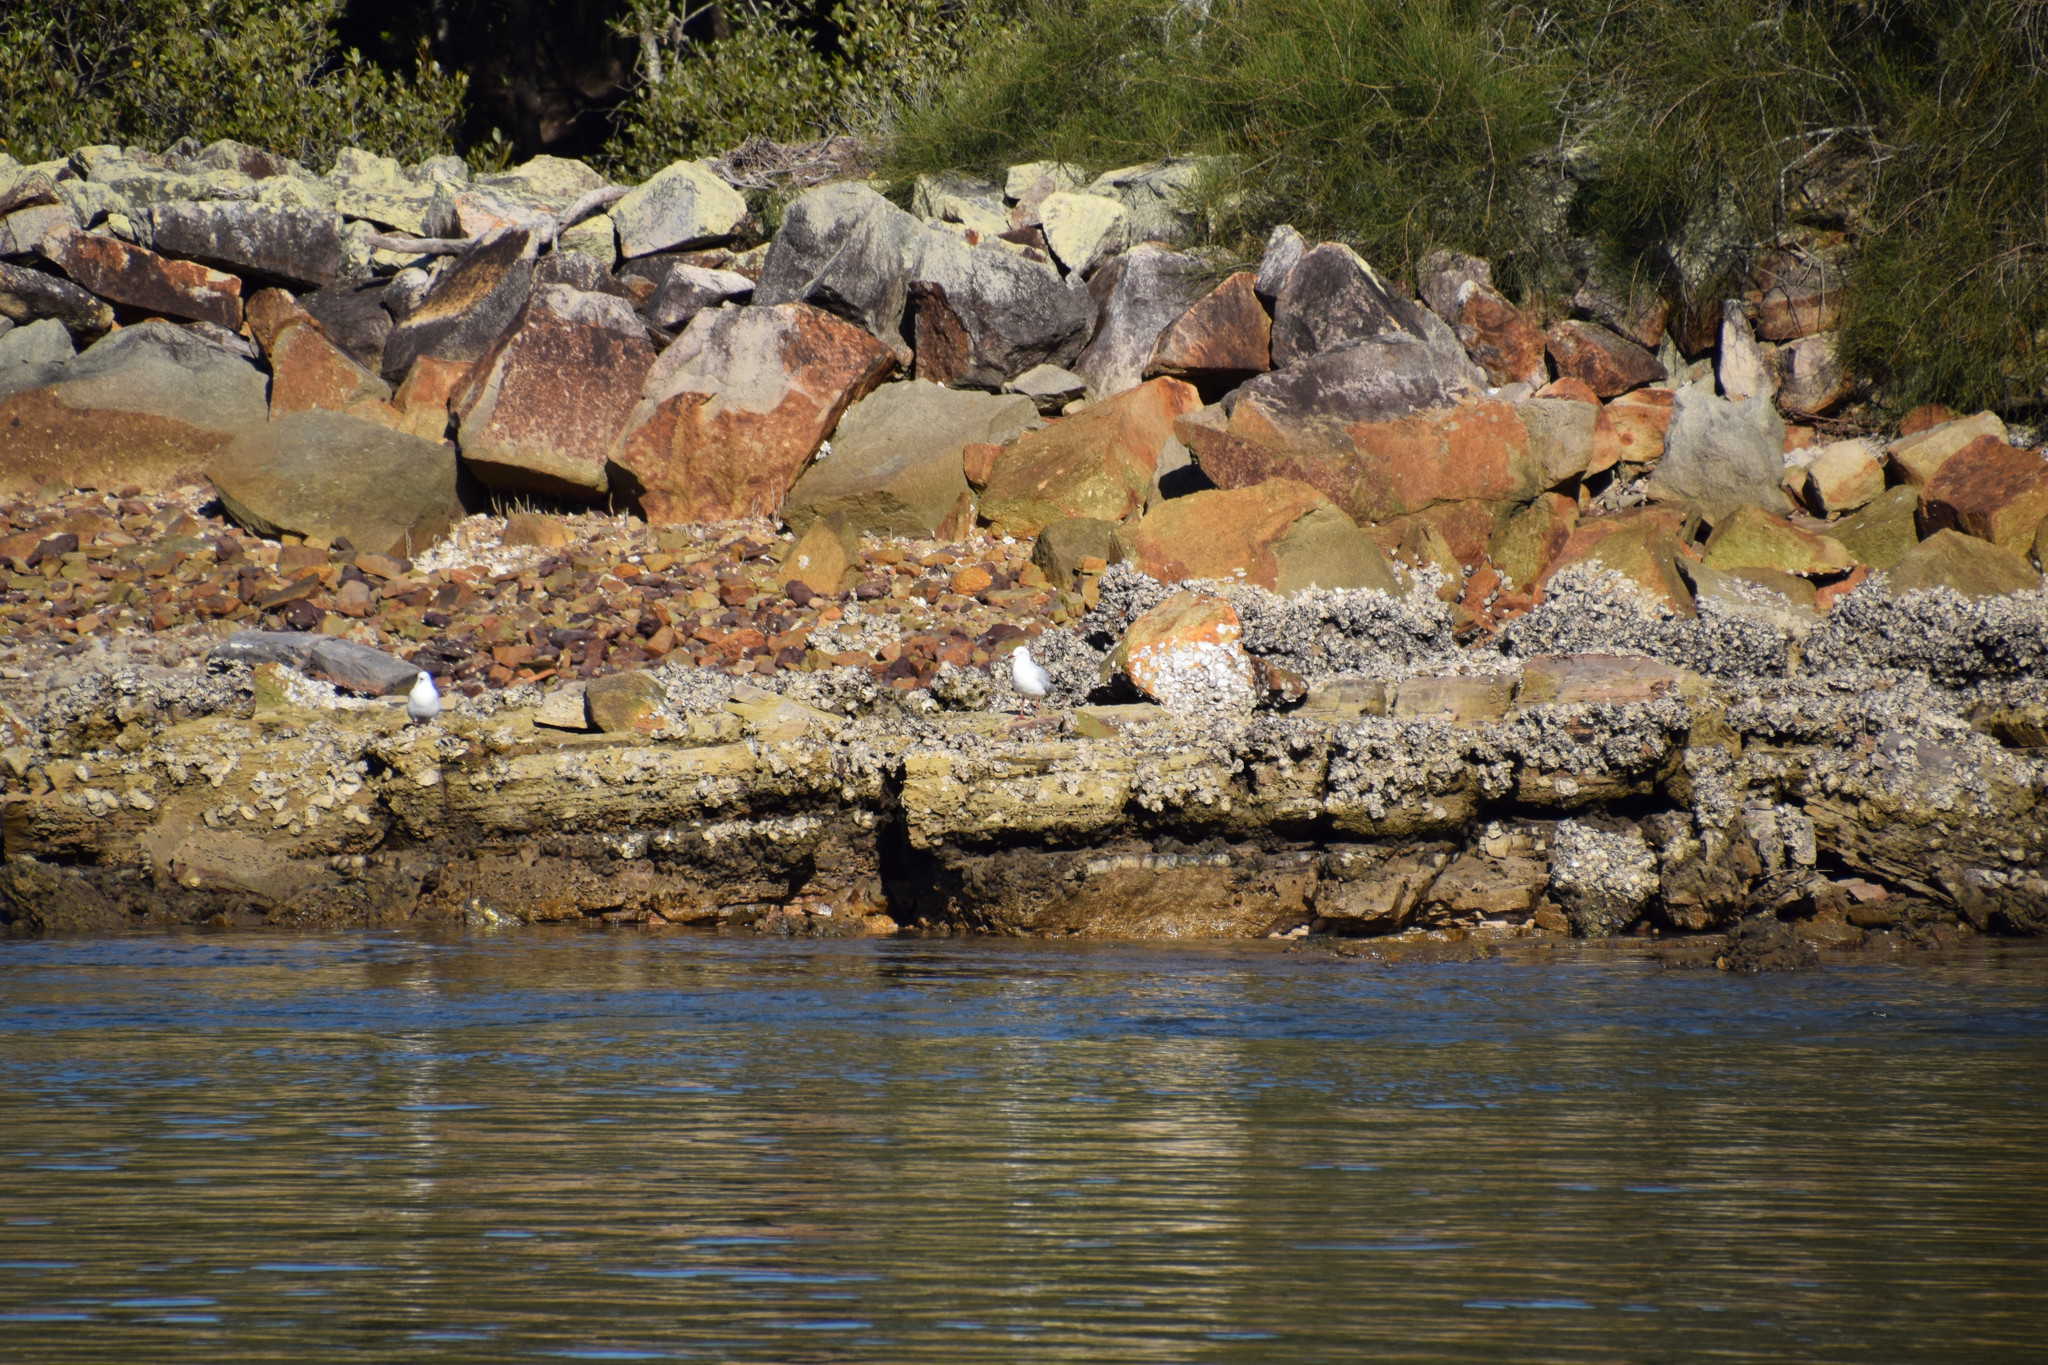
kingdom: Animalia
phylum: Chordata
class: Aves
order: Charadriiformes
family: Laridae
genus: Chroicocephalus
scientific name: Chroicocephalus novaehollandiae
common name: Silver gull
